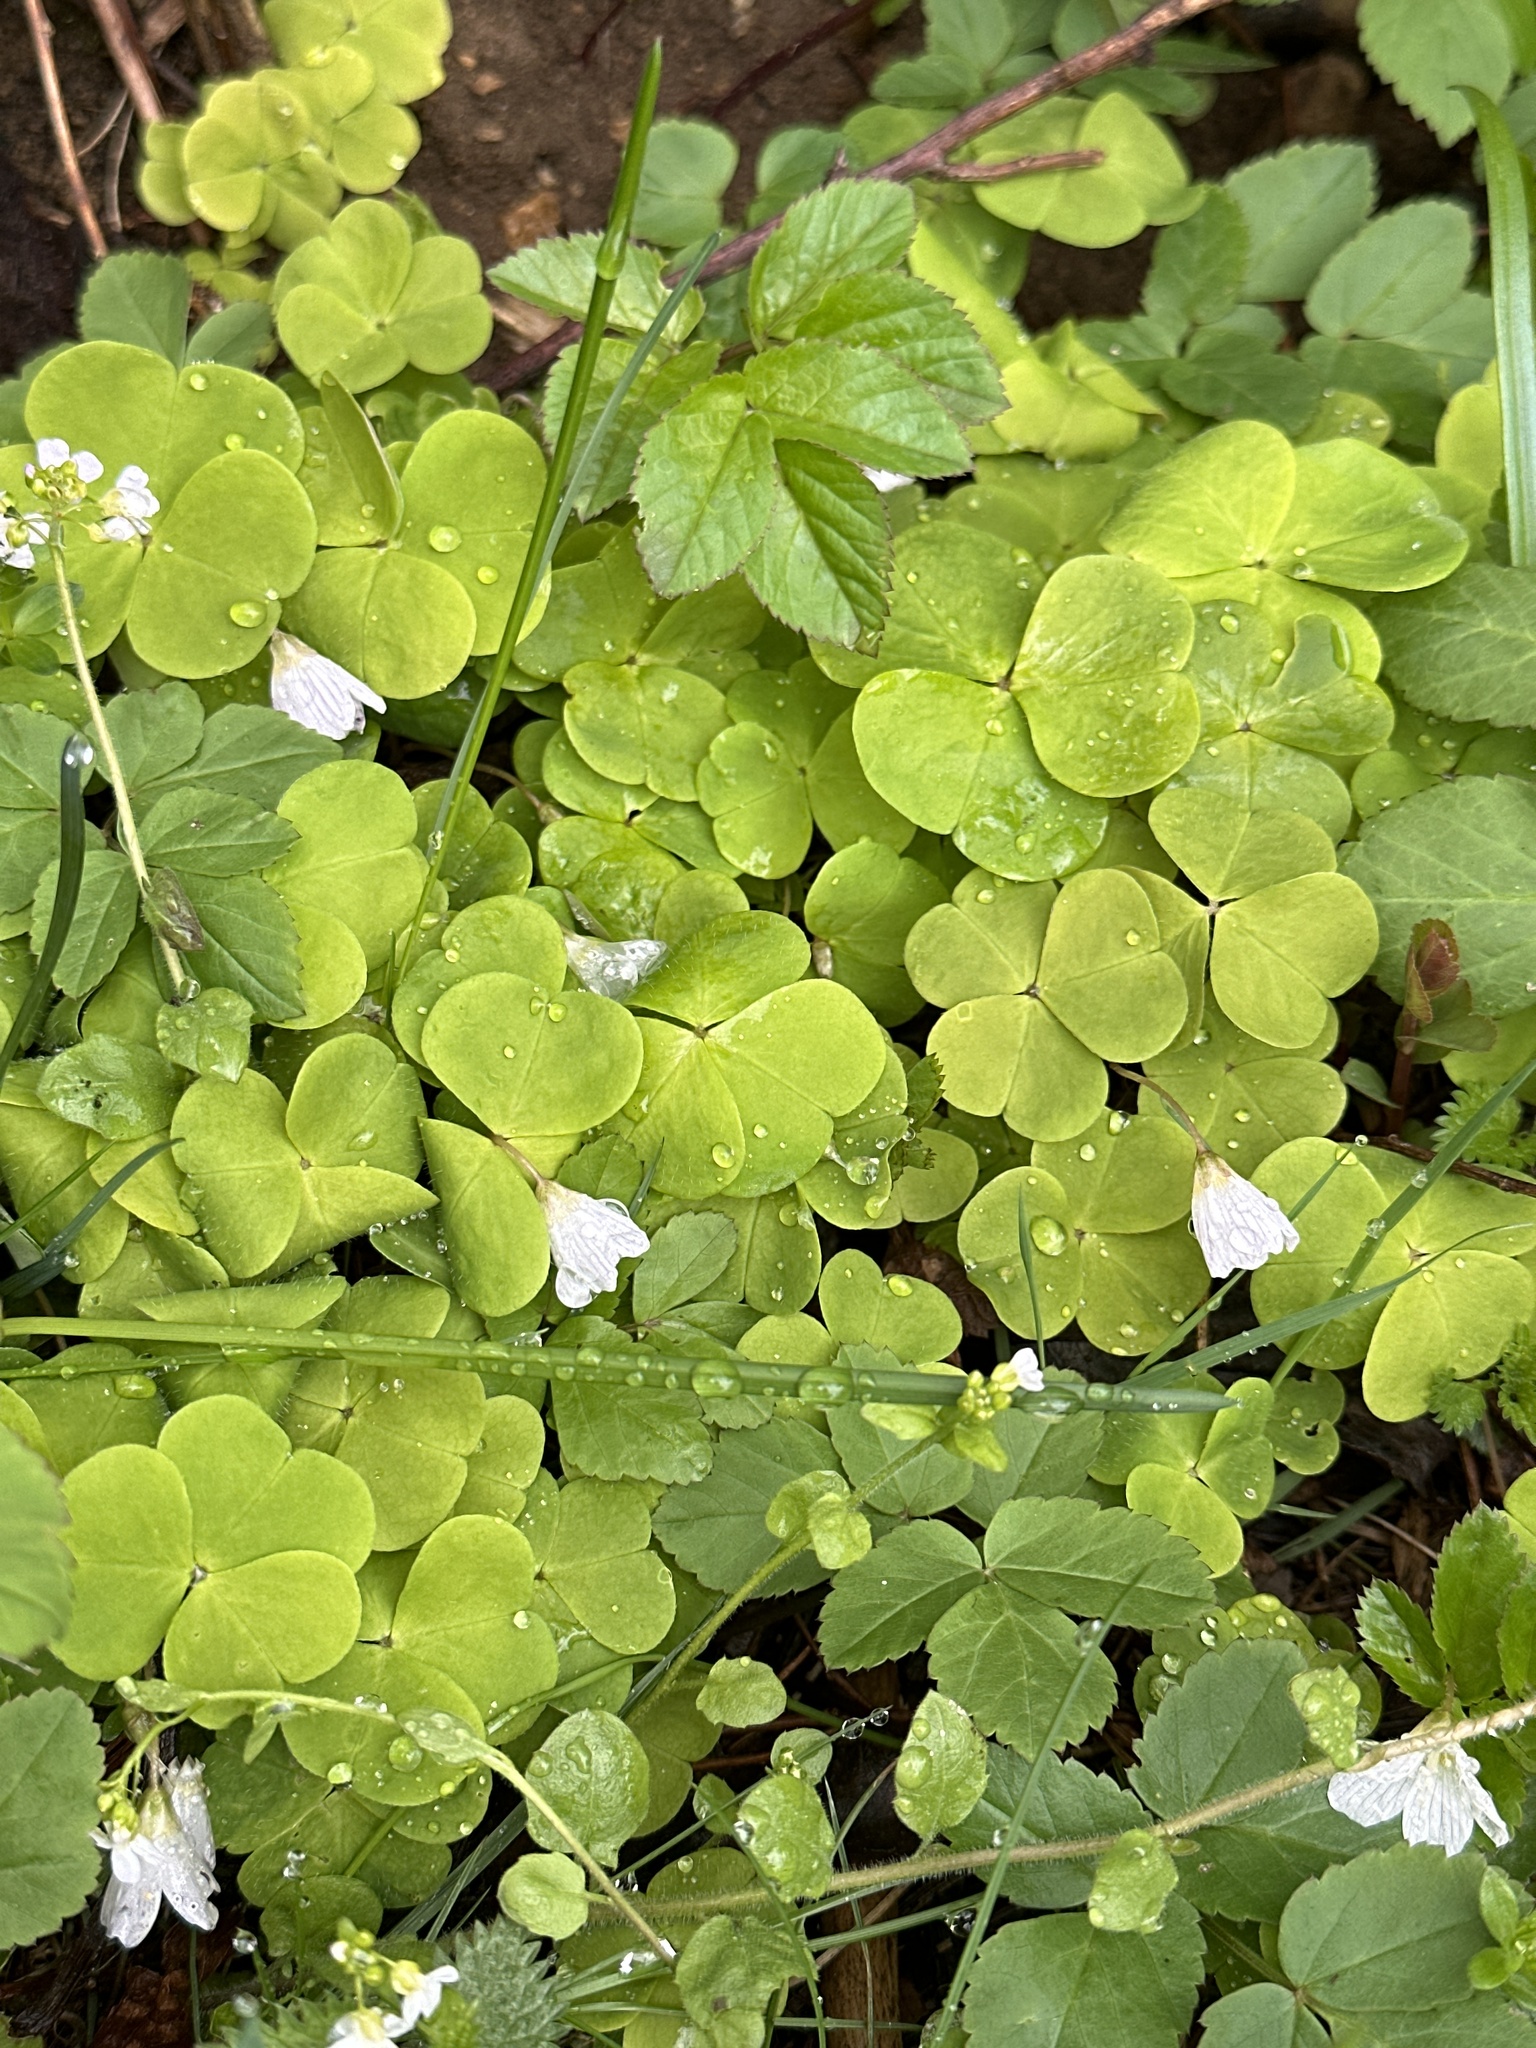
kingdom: Plantae
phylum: Tracheophyta
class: Magnoliopsida
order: Oxalidales
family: Oxalidaceae
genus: Oxalis
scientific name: Oxalis acetosella
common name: Wood-sorrel
